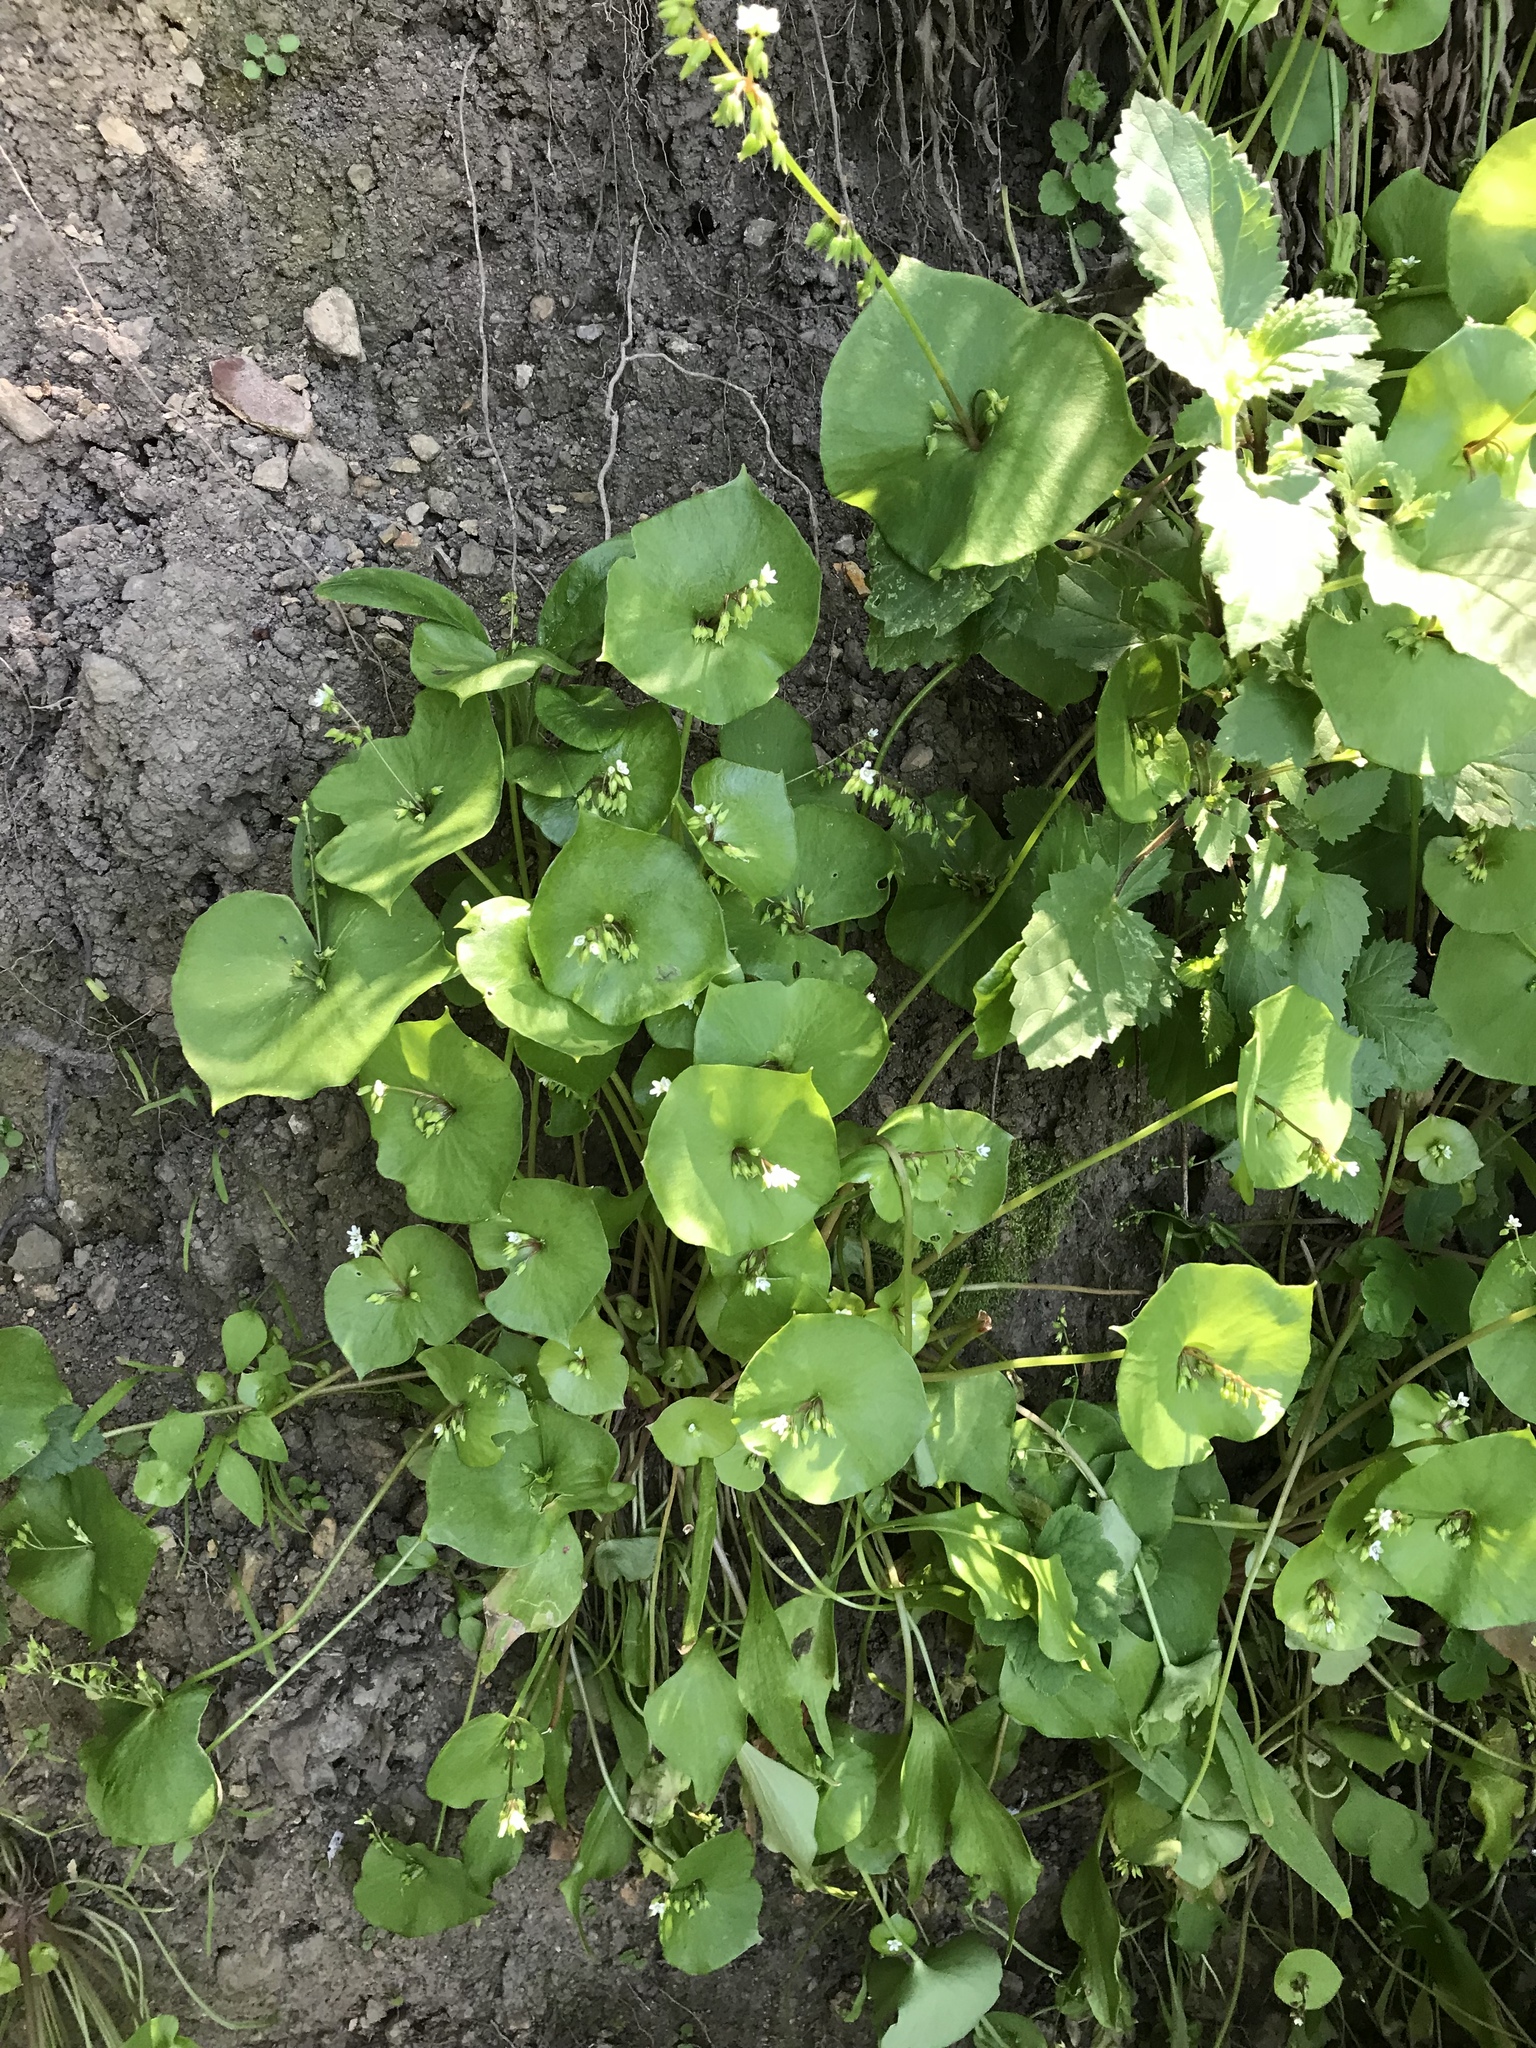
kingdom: Plantae
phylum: Tracheophyta
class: Magnoliopsida
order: Caryophyllales
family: Montiaceae
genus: Claytonia
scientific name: Claytonia perfoliata
